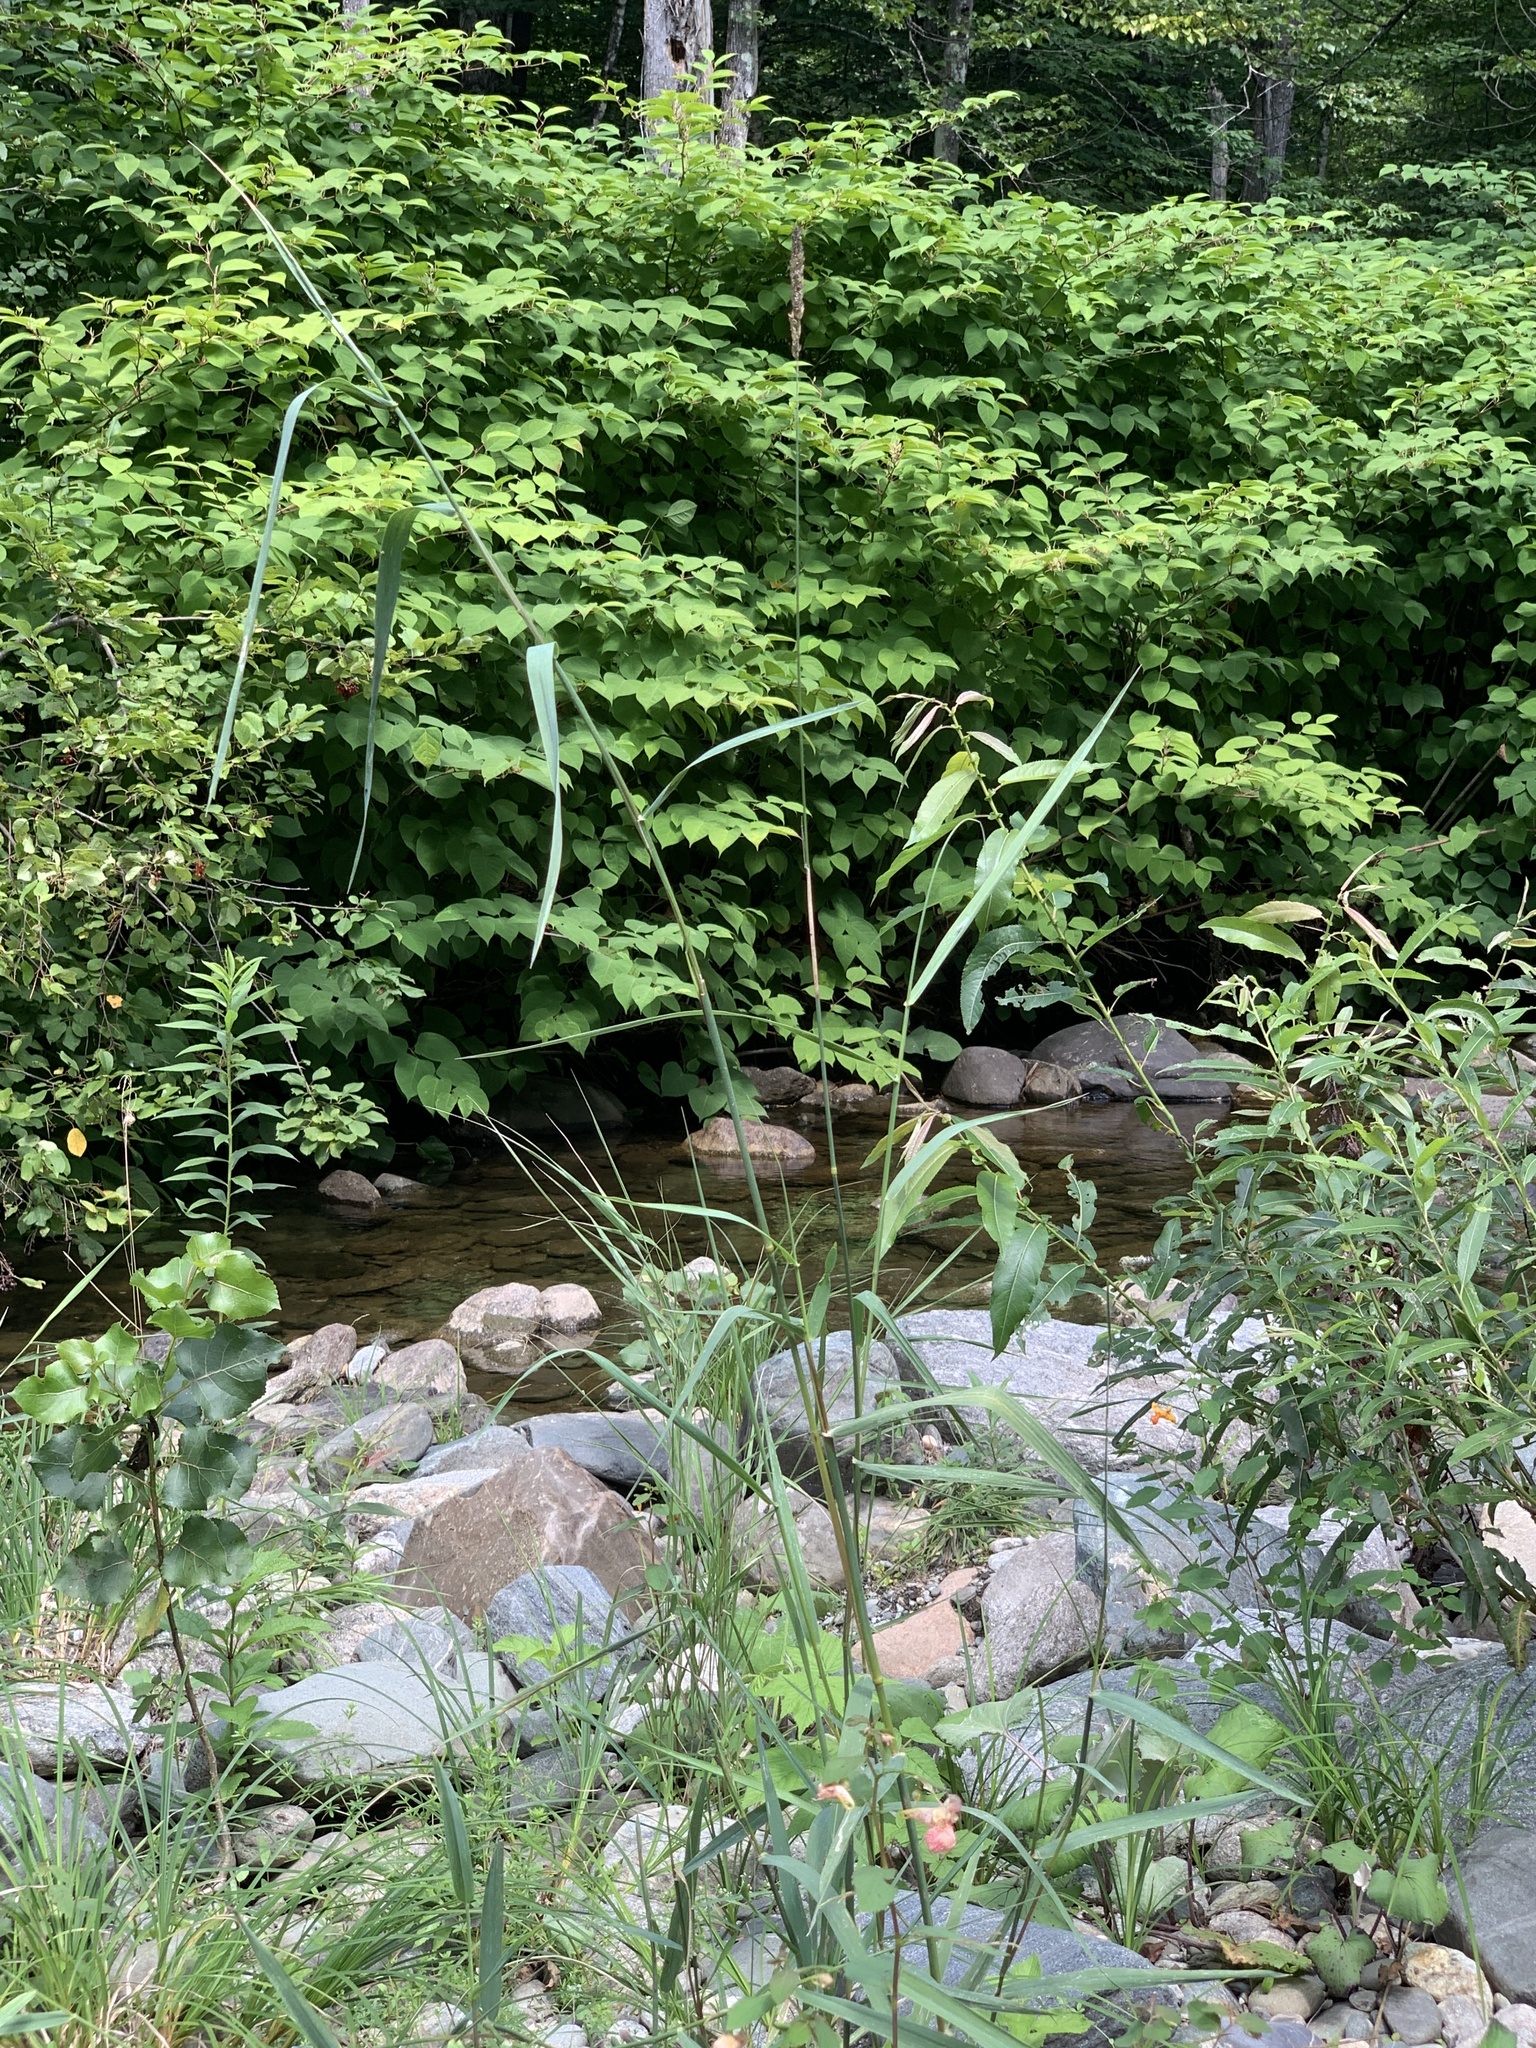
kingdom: Plantae
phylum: Tracheophyta
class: Liliopsida
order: Poales
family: Poaceae
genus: Phalaris
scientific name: Phalaris arundinacea
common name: Reed canary-grass
